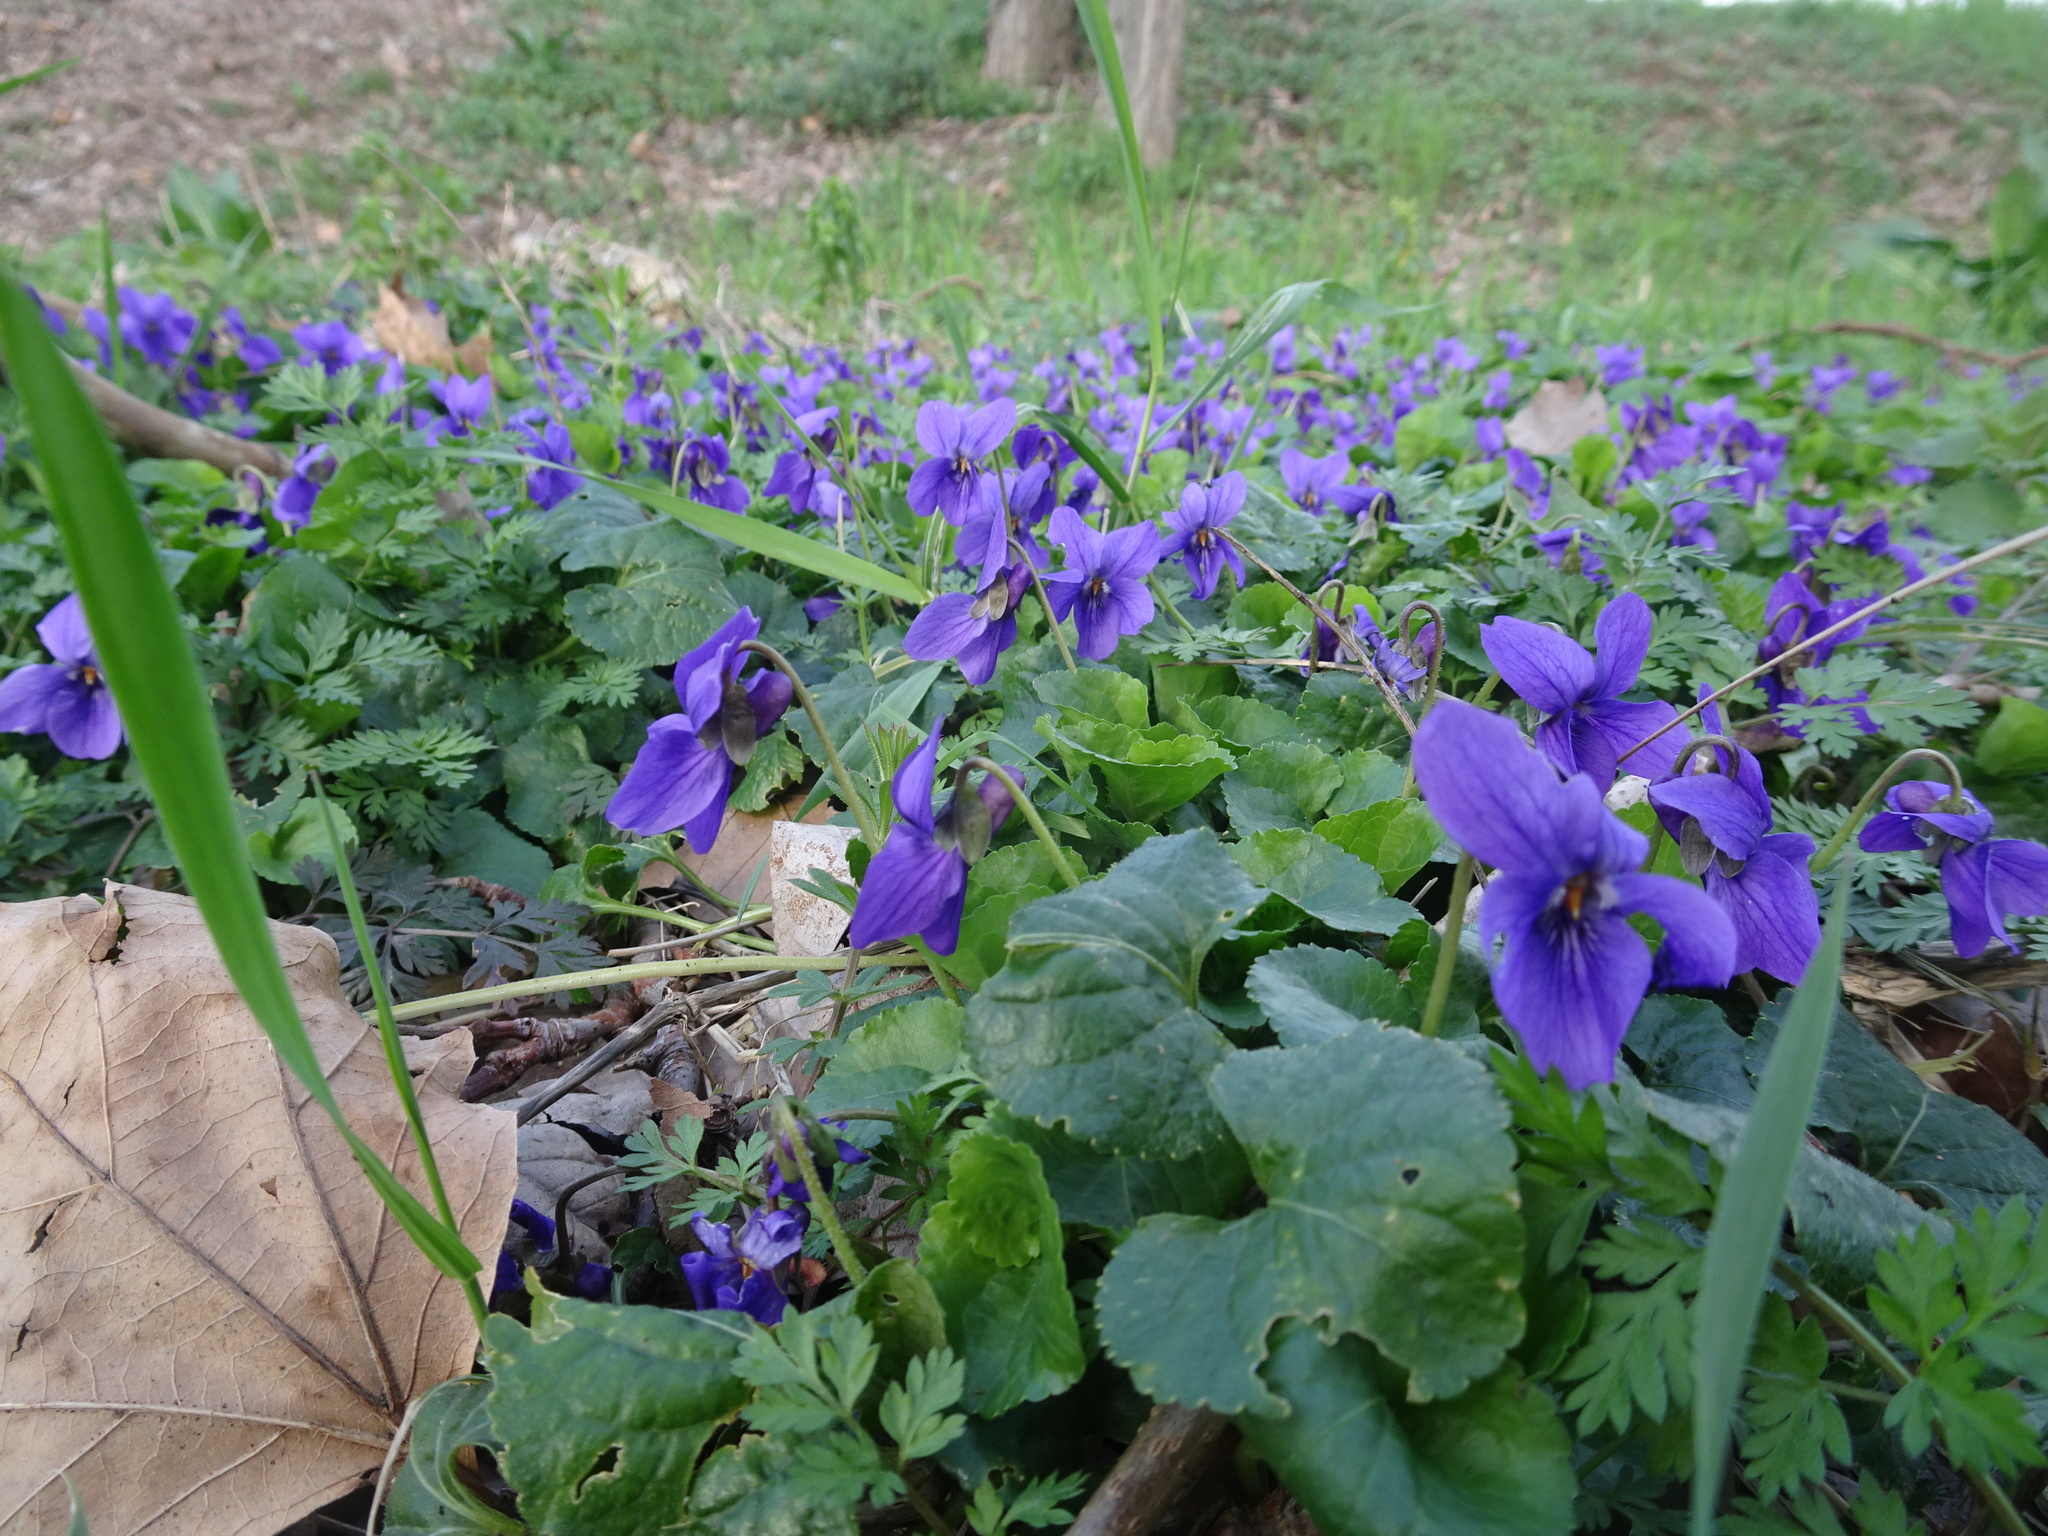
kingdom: Plantae
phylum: Tracheophyta
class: Magnoliopsida
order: Malpighiales
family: Violaceae
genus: Viola
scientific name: Viola odorata
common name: Sweet violet
